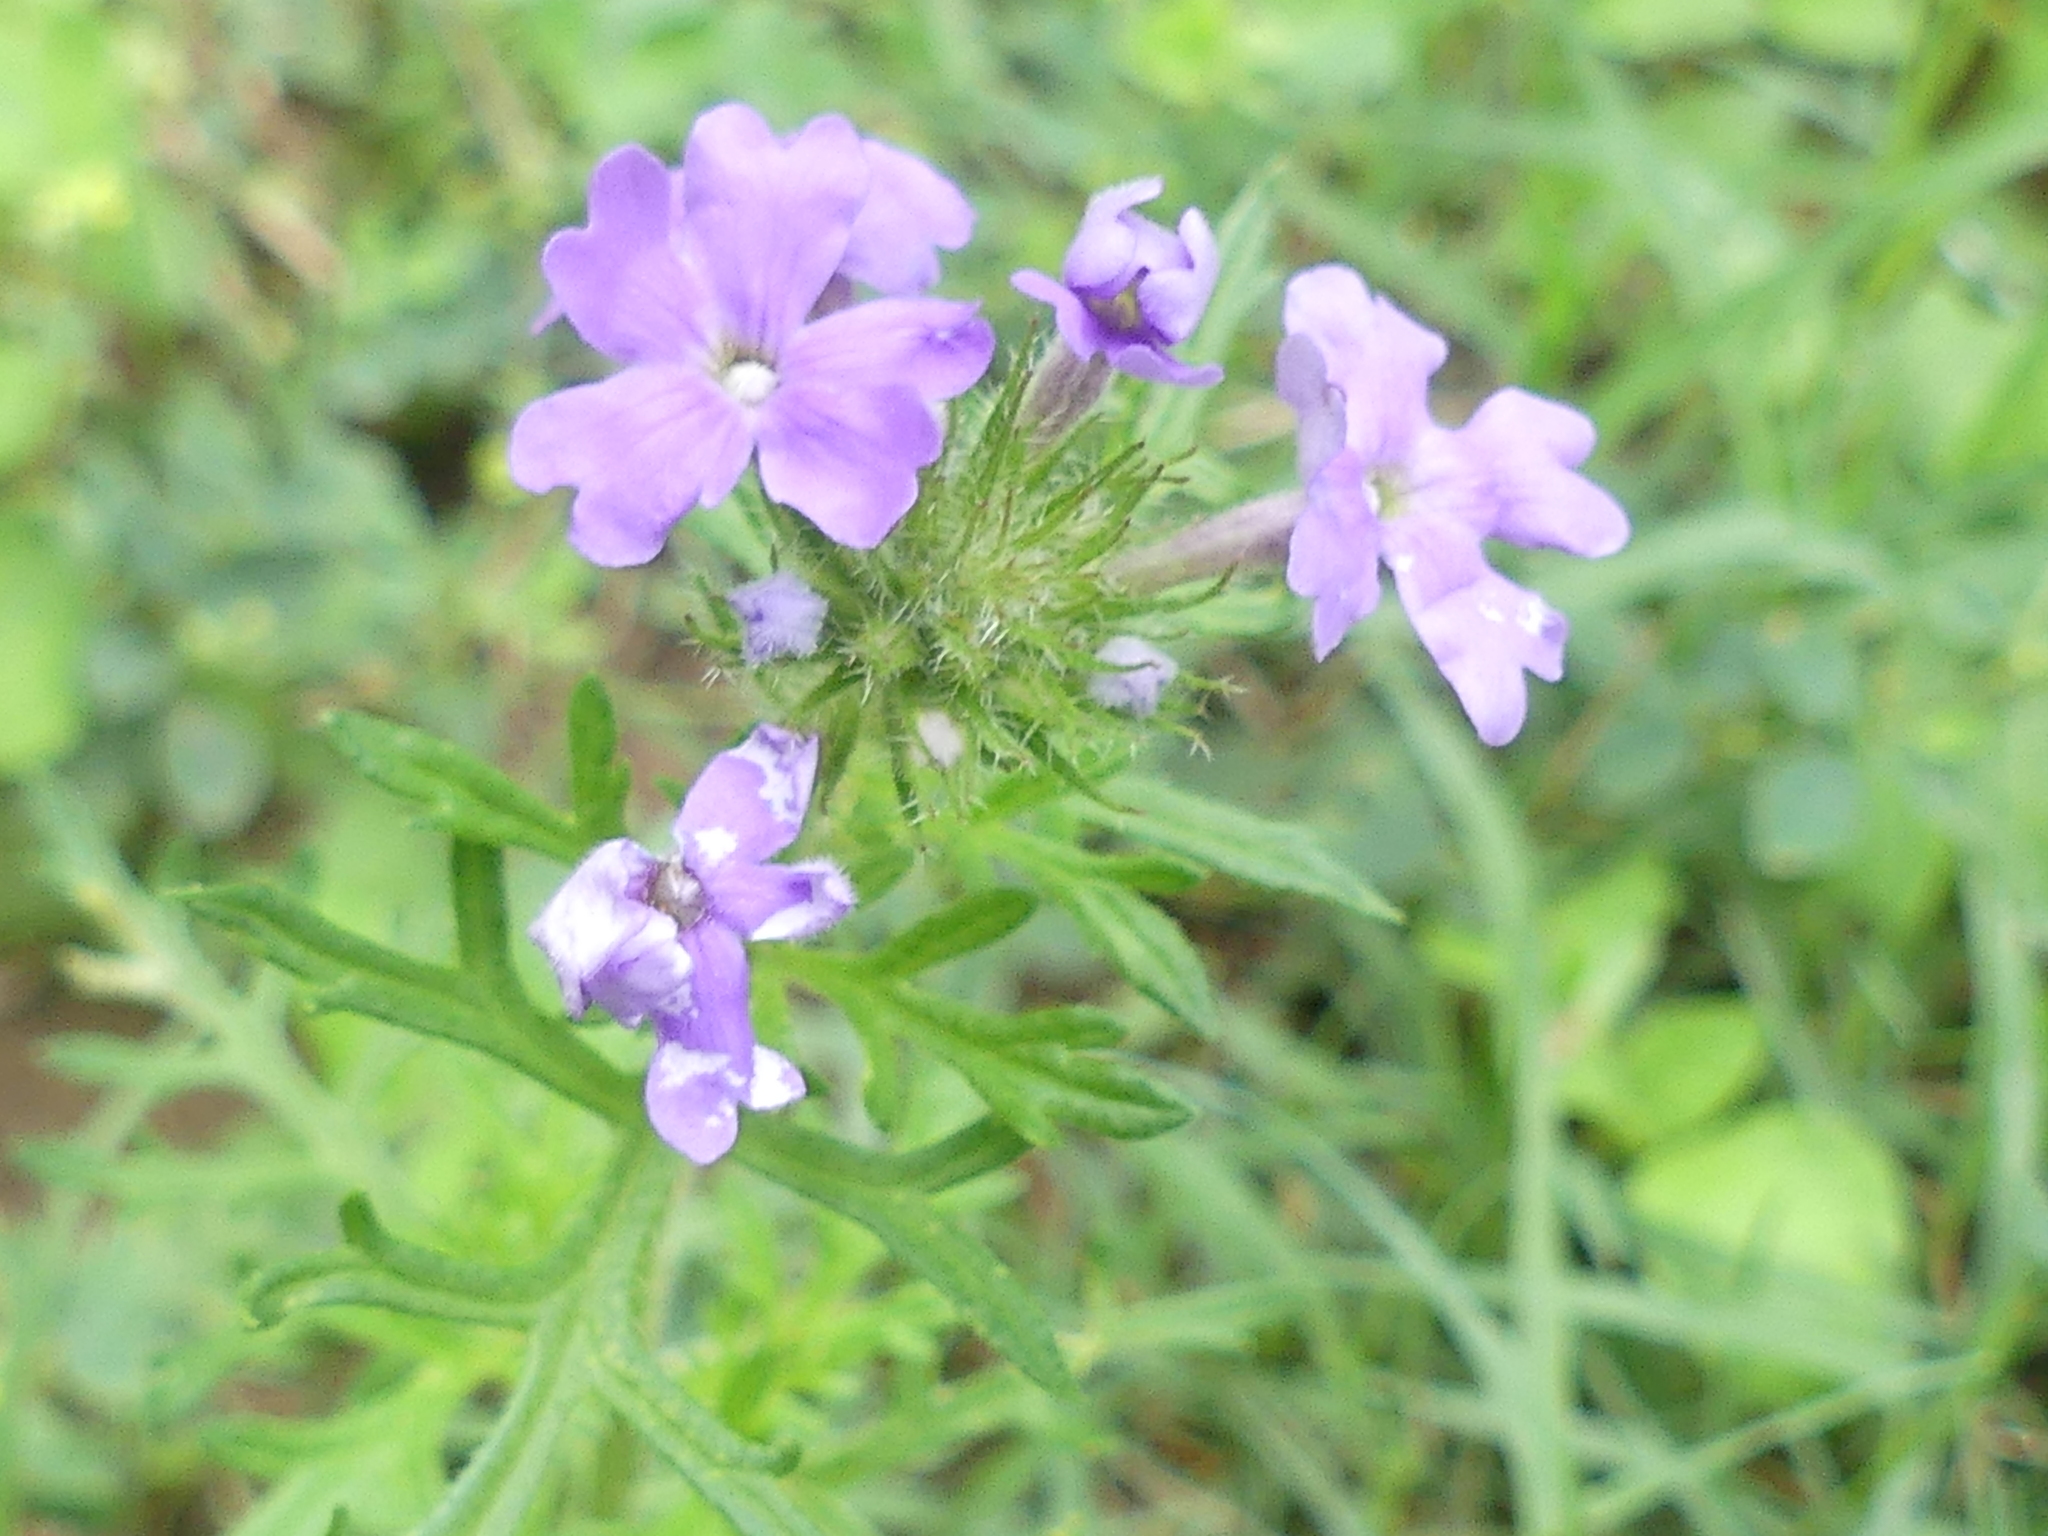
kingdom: Plantae
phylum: Tracheophyta
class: Magnoliopsida
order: Lamiales
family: Verbenaceae
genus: Verbena
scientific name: Verbena bipinnatifida
